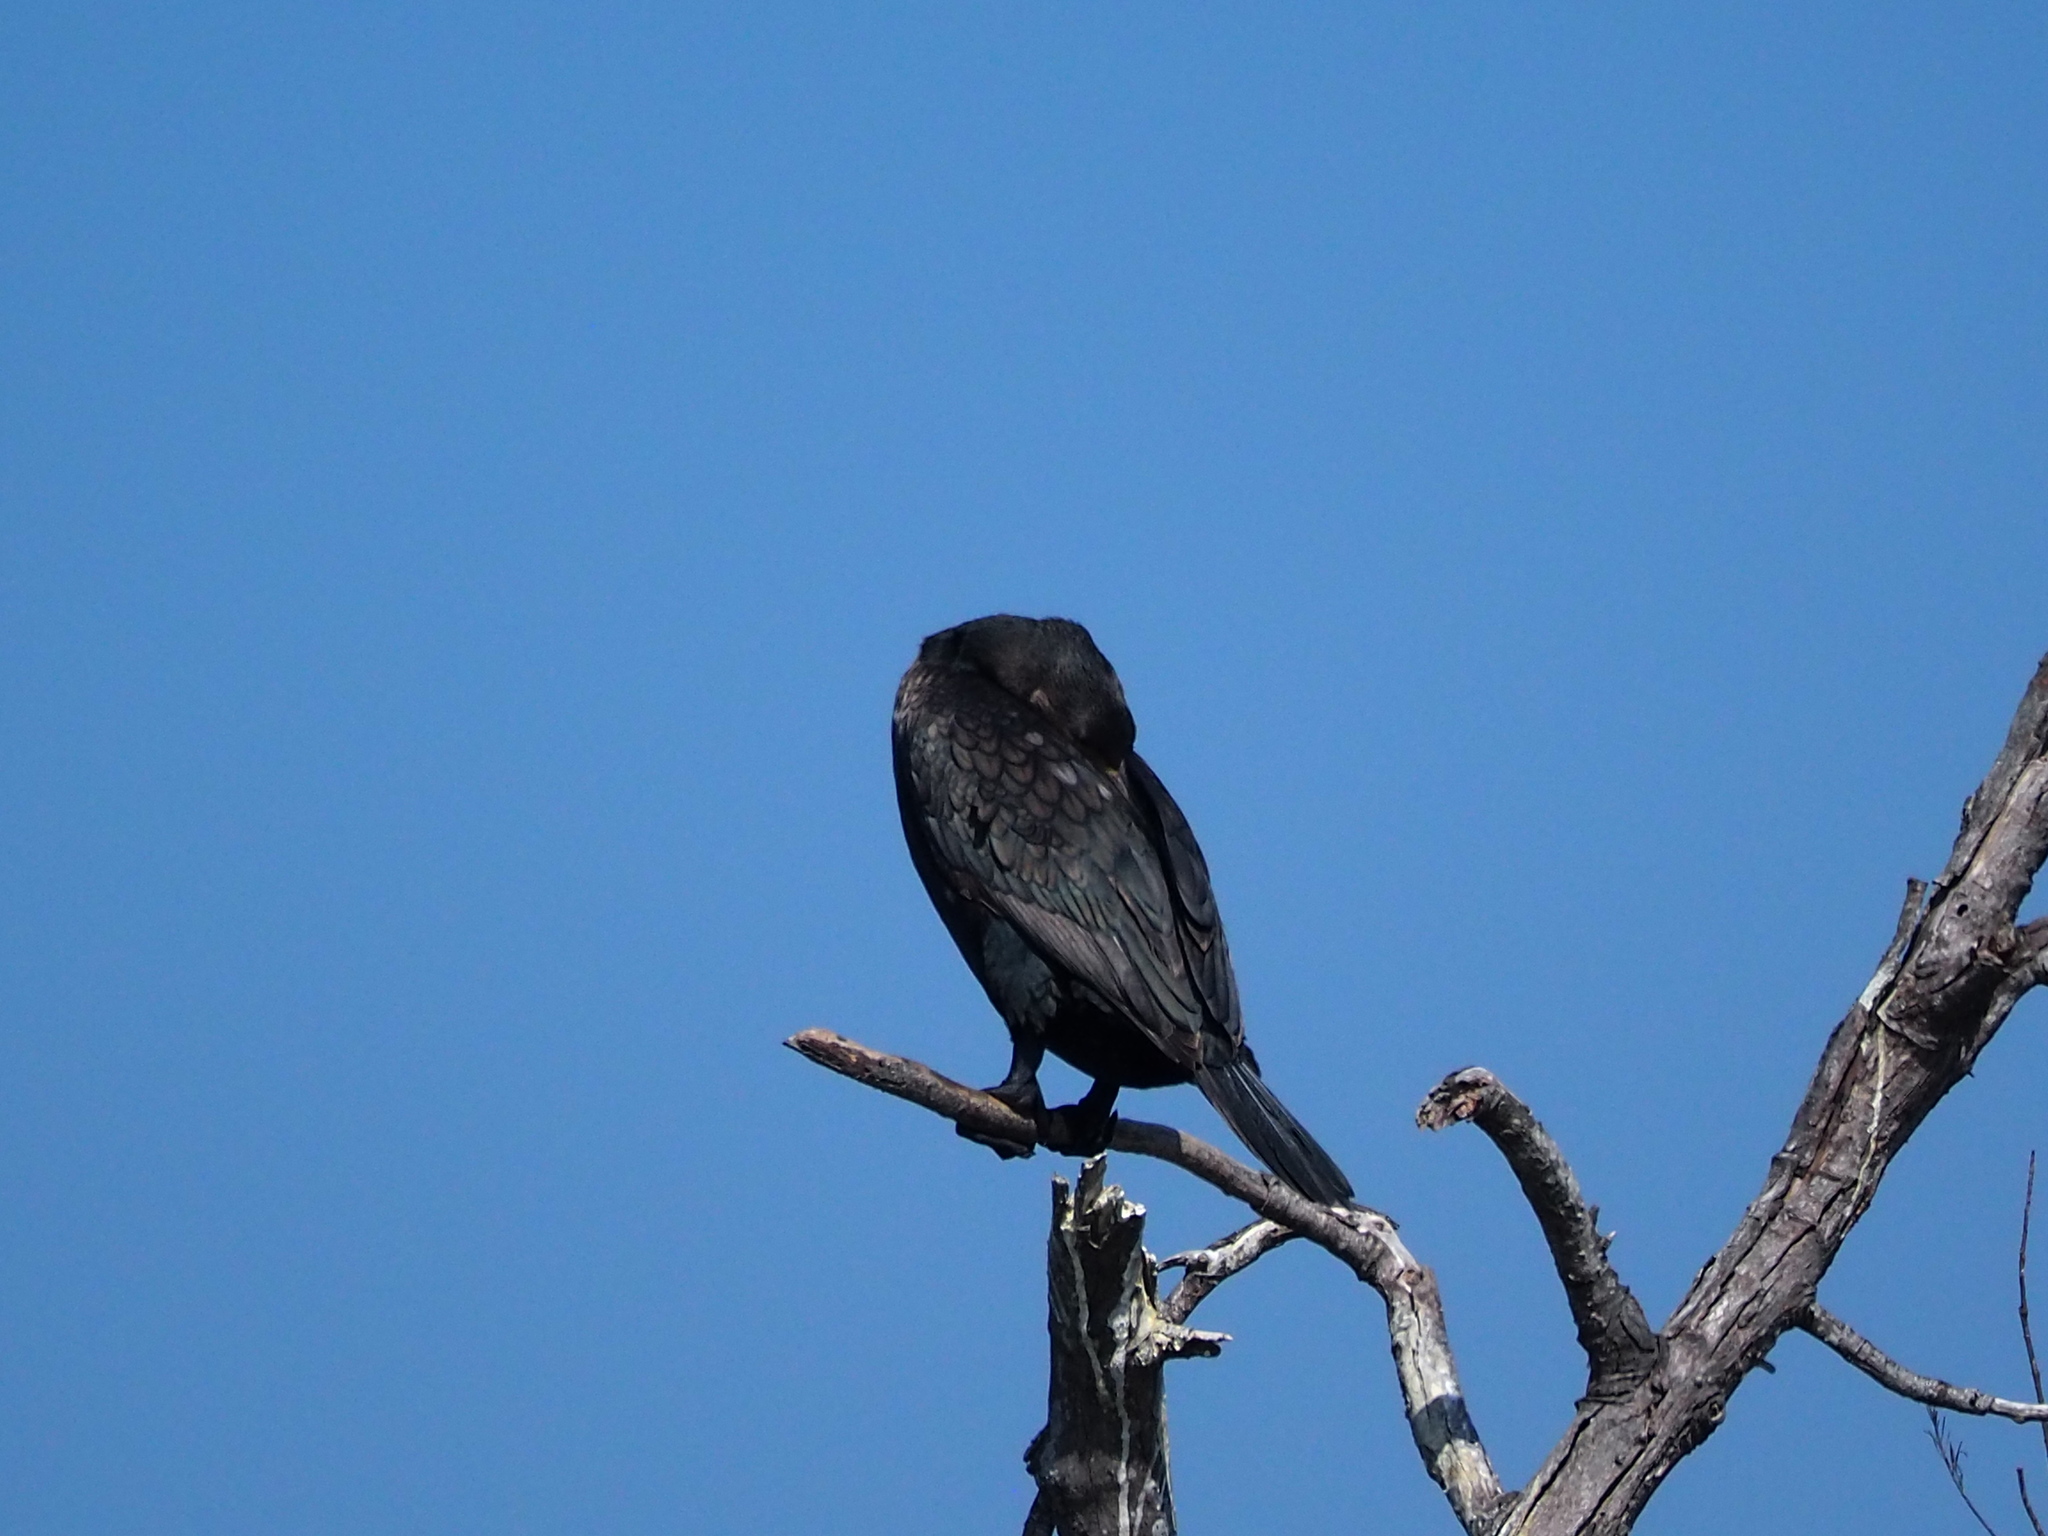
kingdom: Animalia
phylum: Chordata
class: Aves
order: Suliformes
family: Phalacrocoracidae
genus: Phalacrocorax
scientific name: Phalacrocorax carbo
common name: Great cormorant
